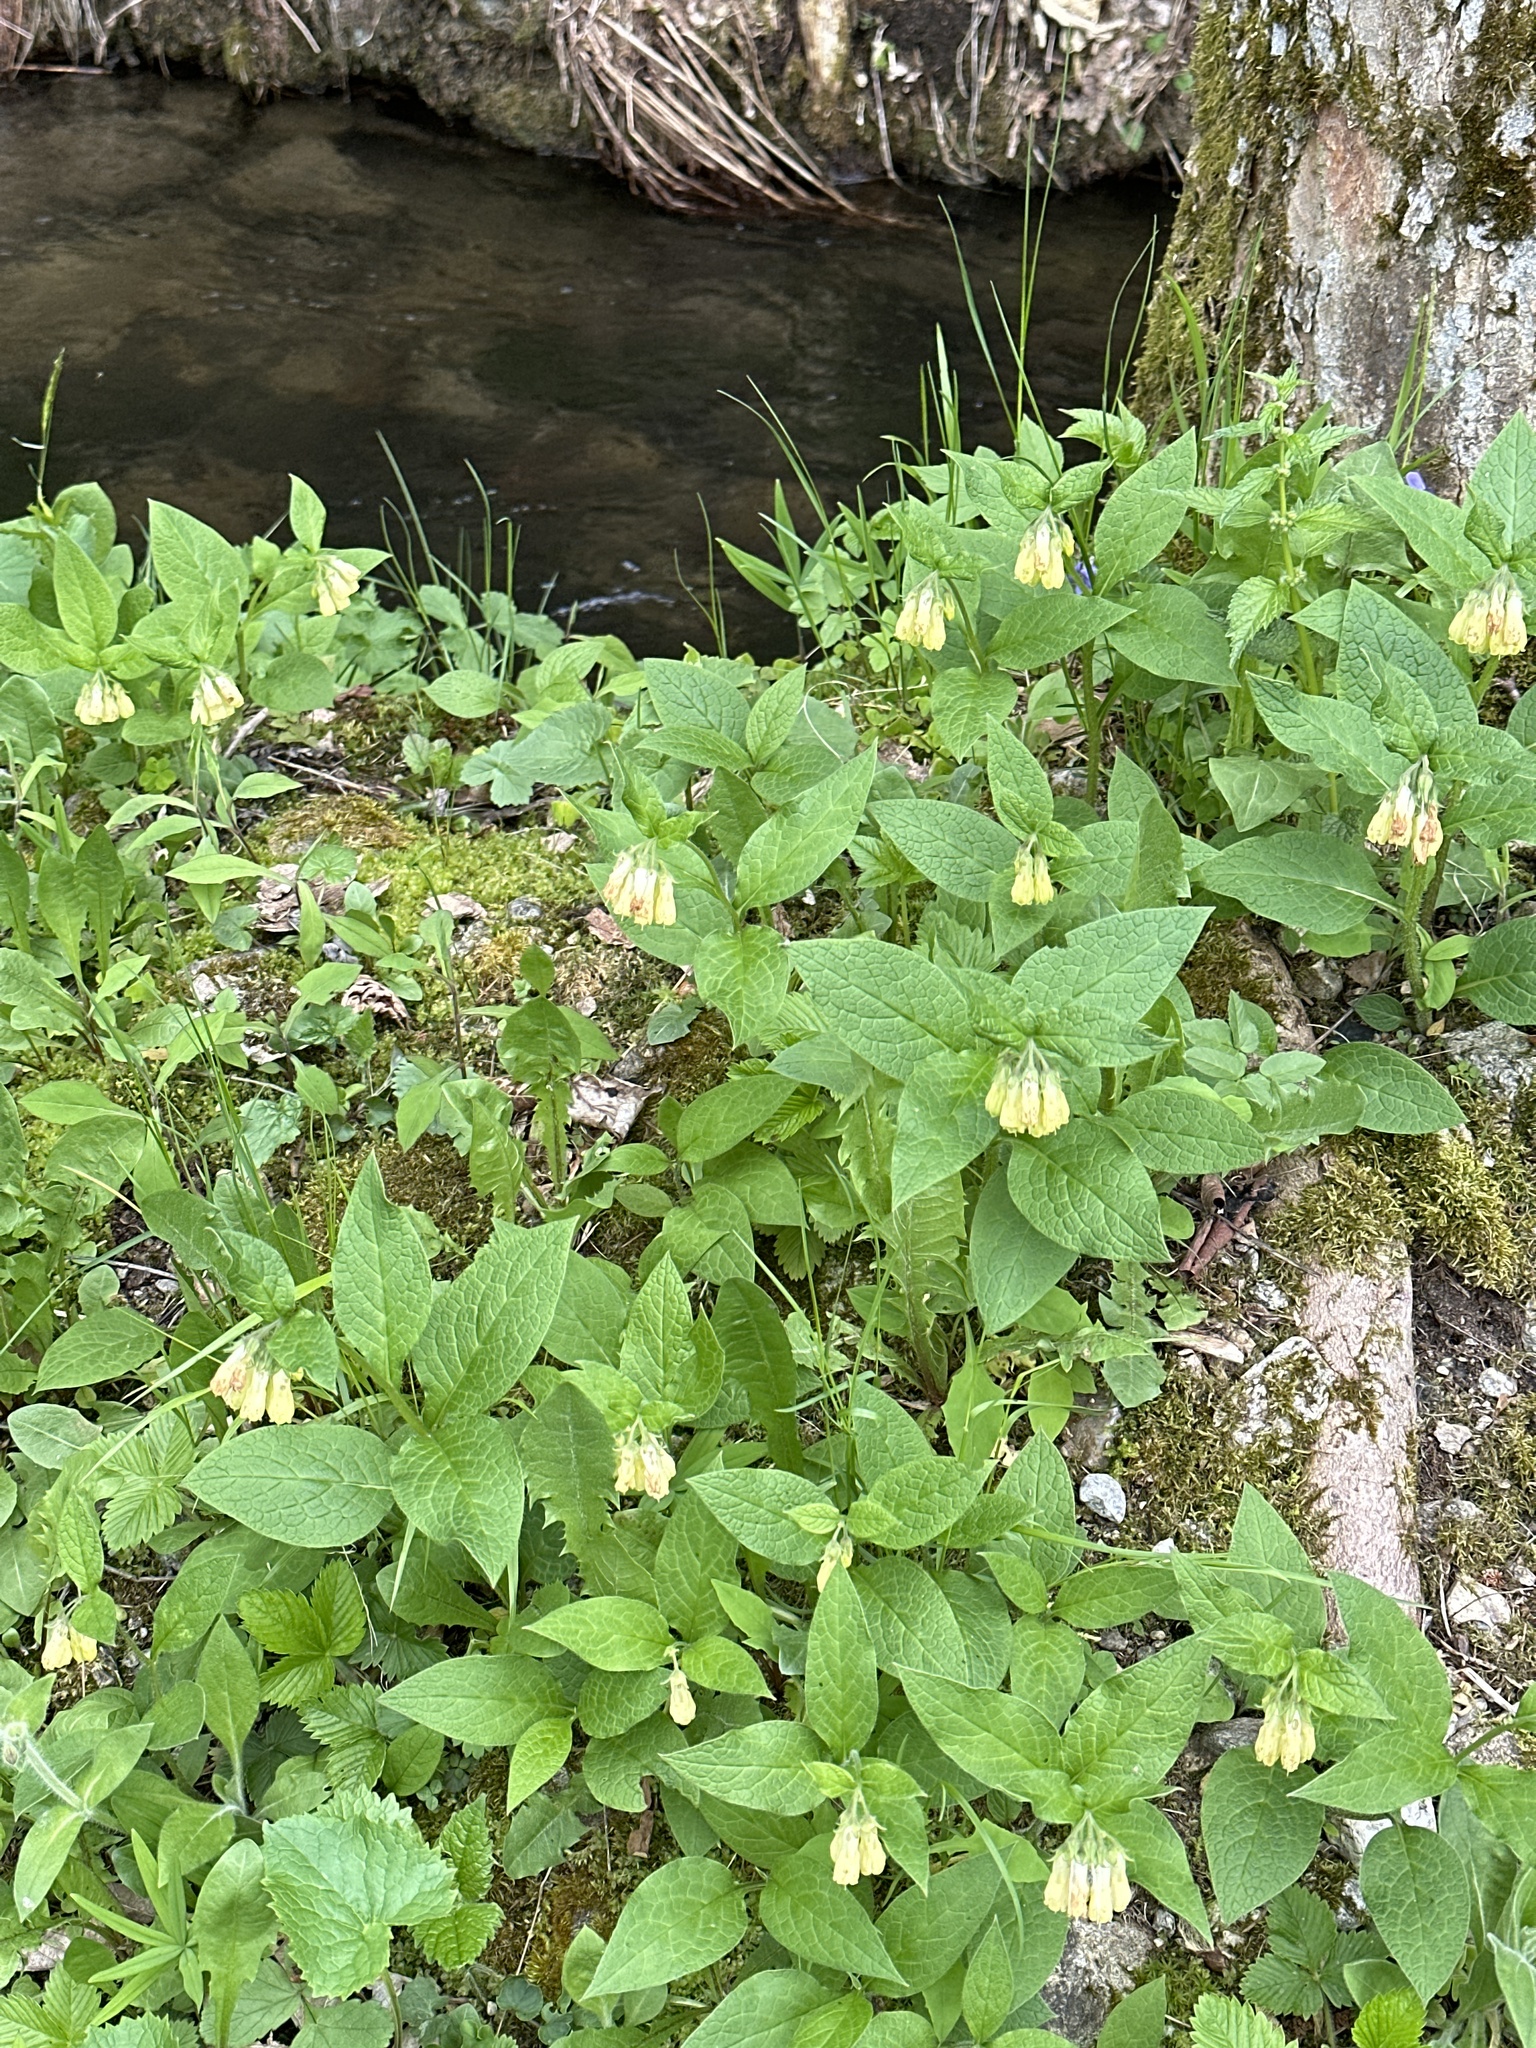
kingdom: Plantae
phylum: Tracheophyta
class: Magnoliopsida
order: Boraginales
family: Boraginaceae
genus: Symphytum
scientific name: Symphytum tuberosum
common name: Tuberous comfrey
